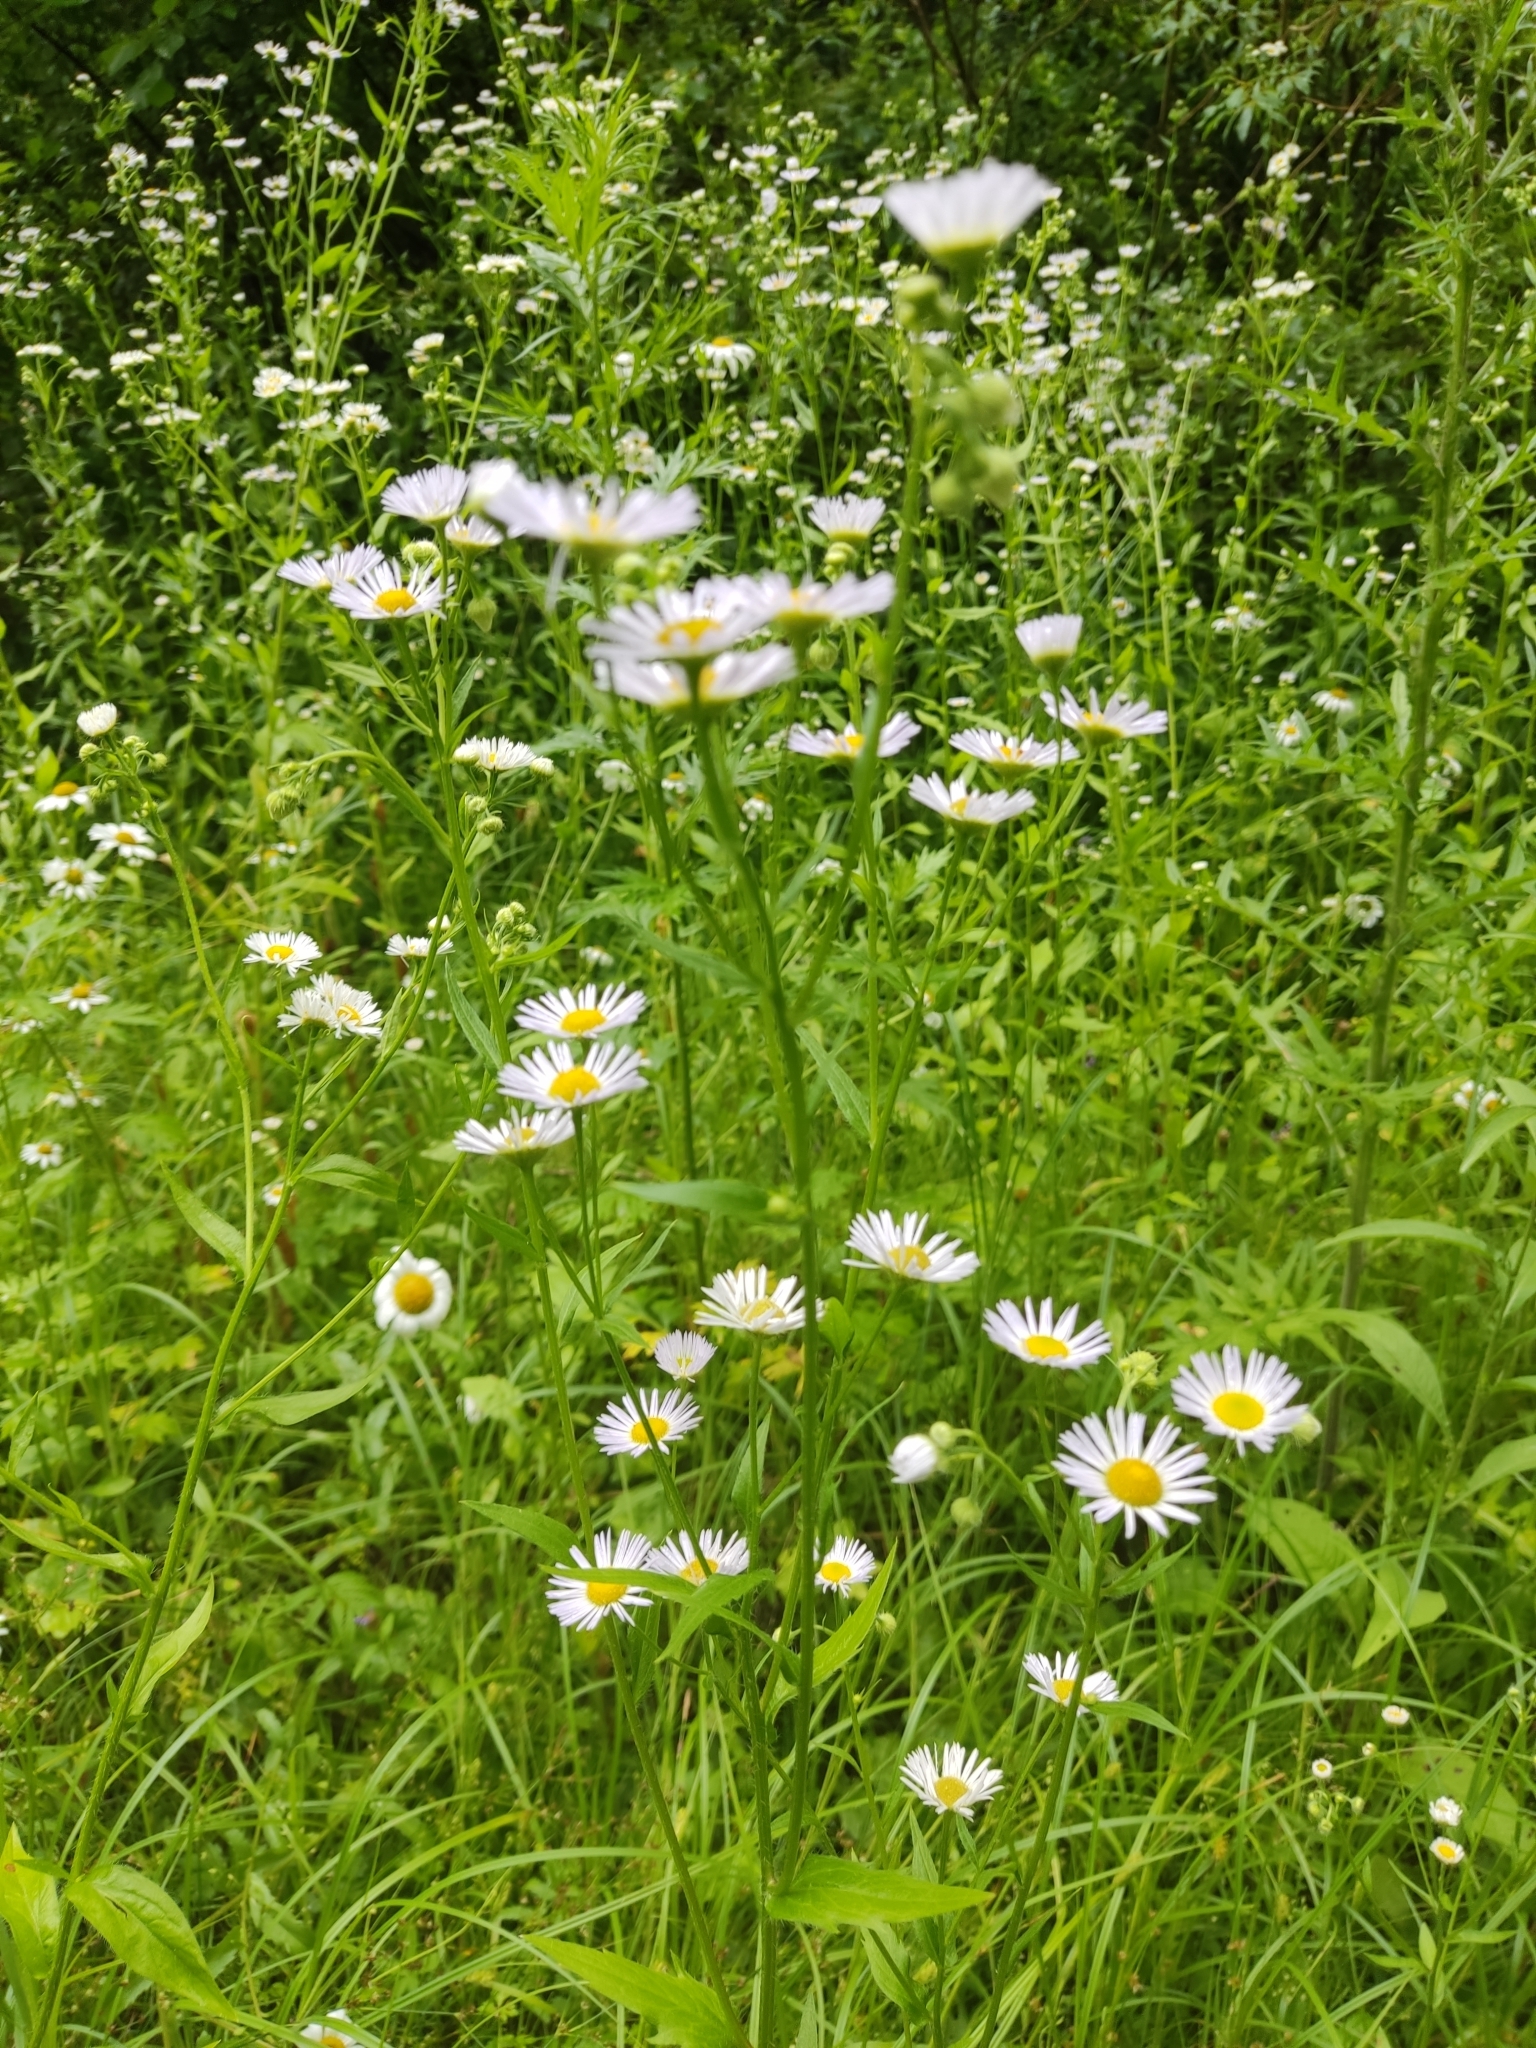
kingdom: Plantae
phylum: Tracheophyta
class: Magnoliopsida
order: Asterales
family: Asteraceae
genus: Erigeron
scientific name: Erigeron annuus
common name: Tall fleabane
